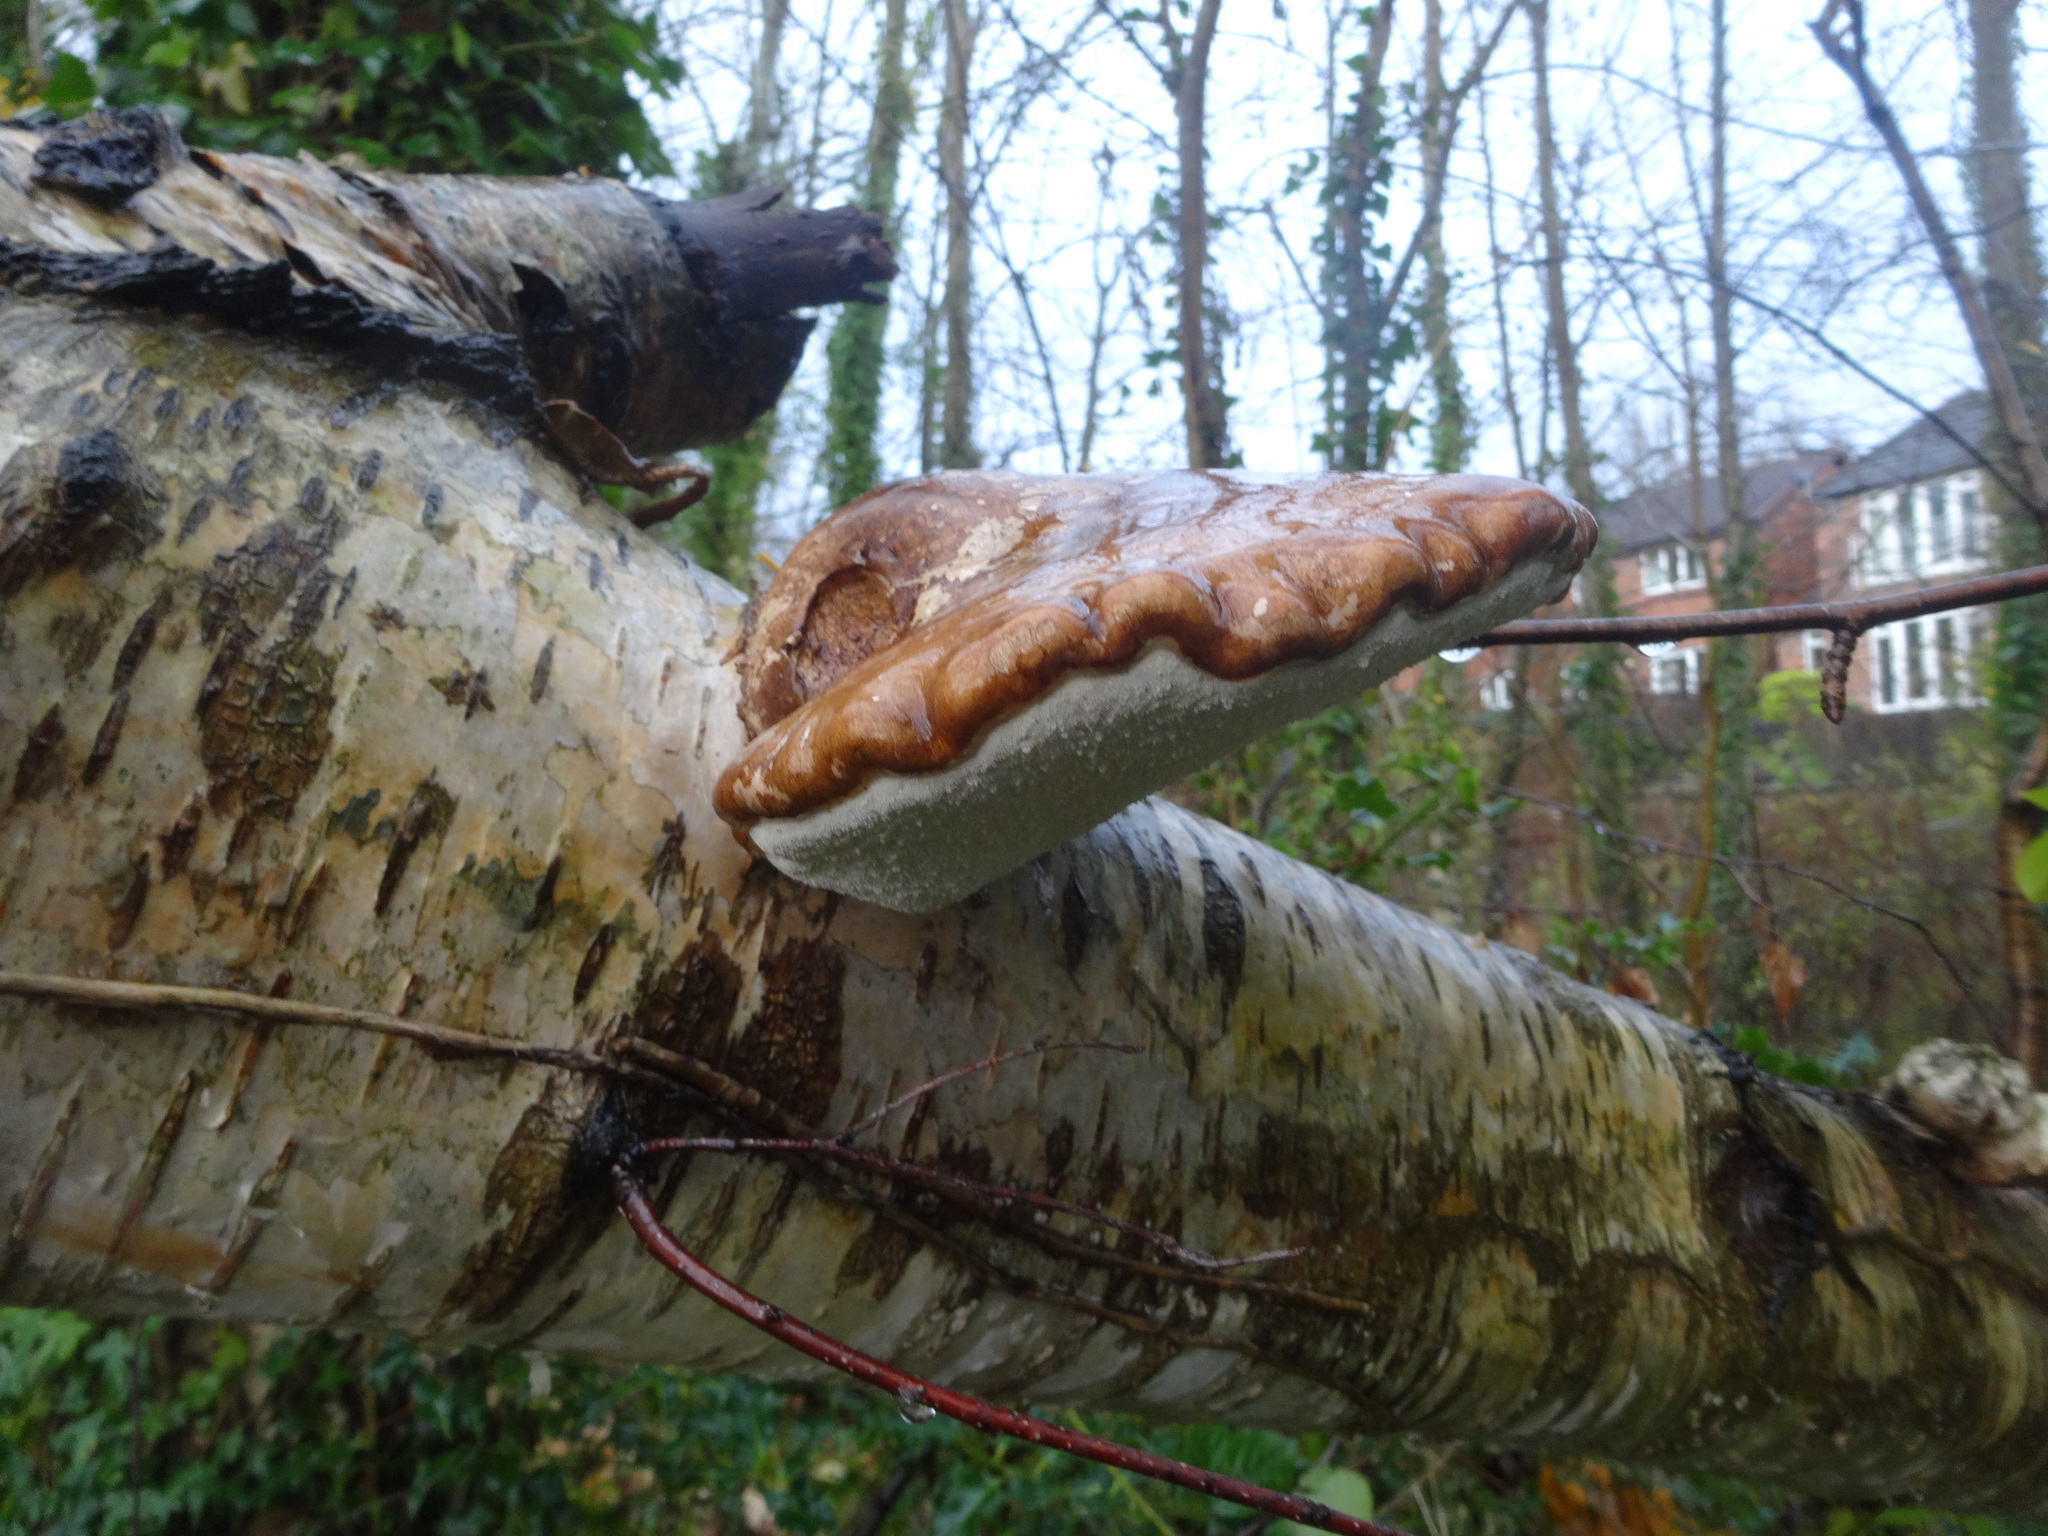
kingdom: Fungi
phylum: Basidiomycota
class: Agaricomycetes
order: Polyporales
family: Fomitopsidaceae
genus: Fomitopsis
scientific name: Fomitopsis betulina
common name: Birch polypore
